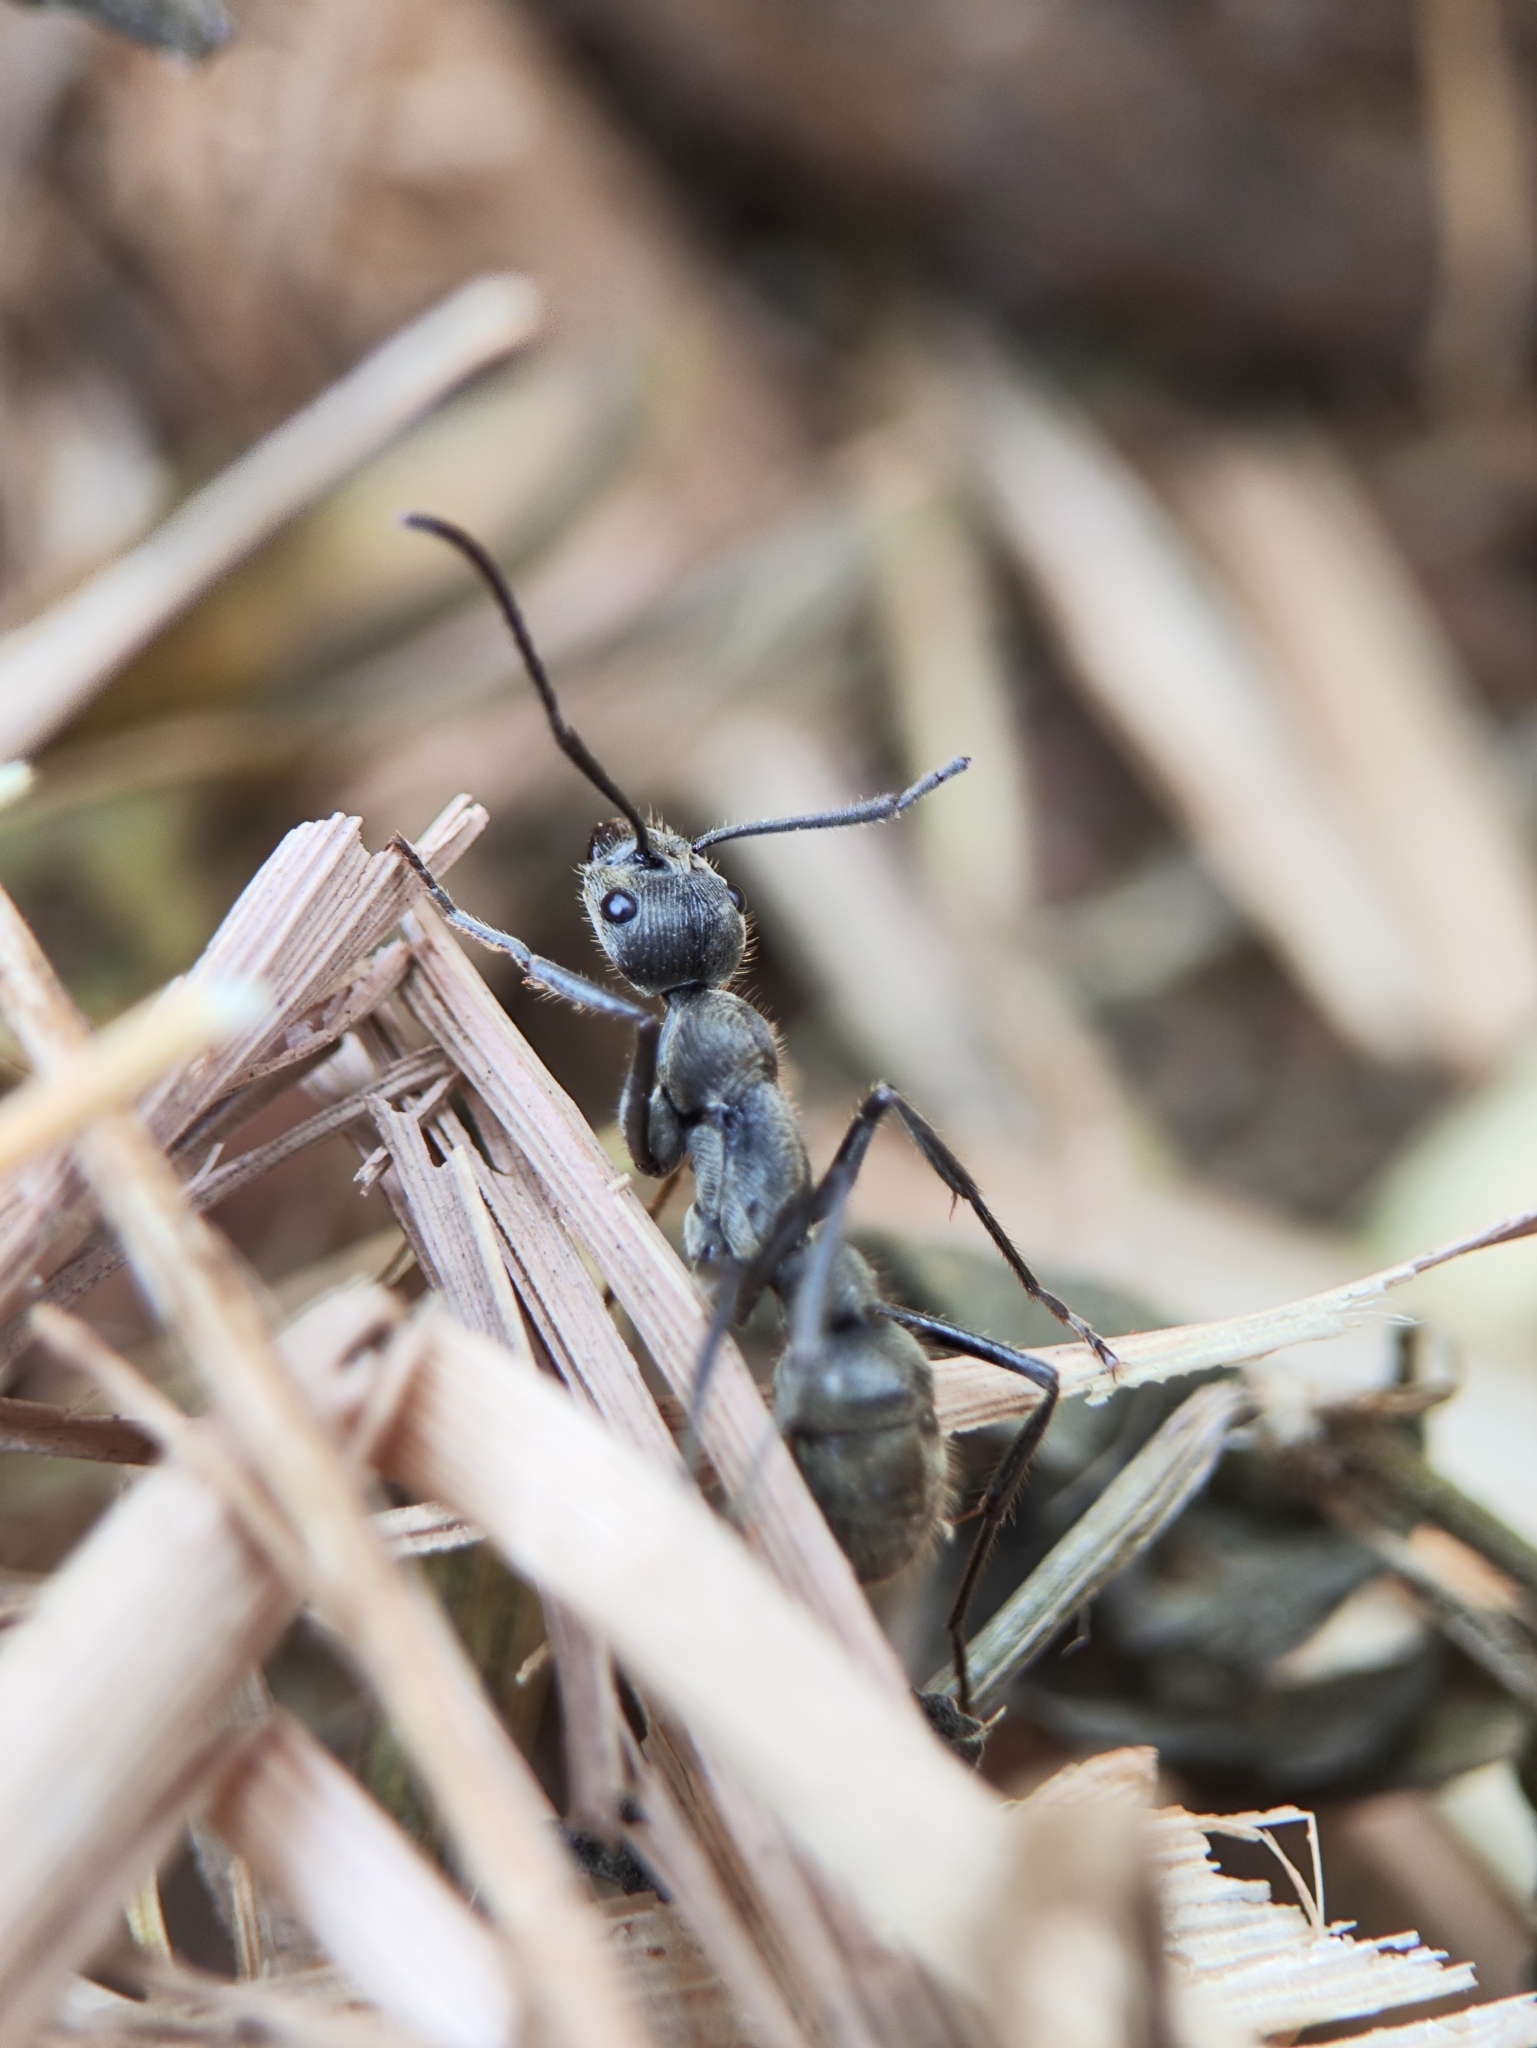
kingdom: Animalia
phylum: Arthropoda
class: Insecta
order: Hymenoptera
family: Formicidae
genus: Diacamma
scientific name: Diacamma rugosum
